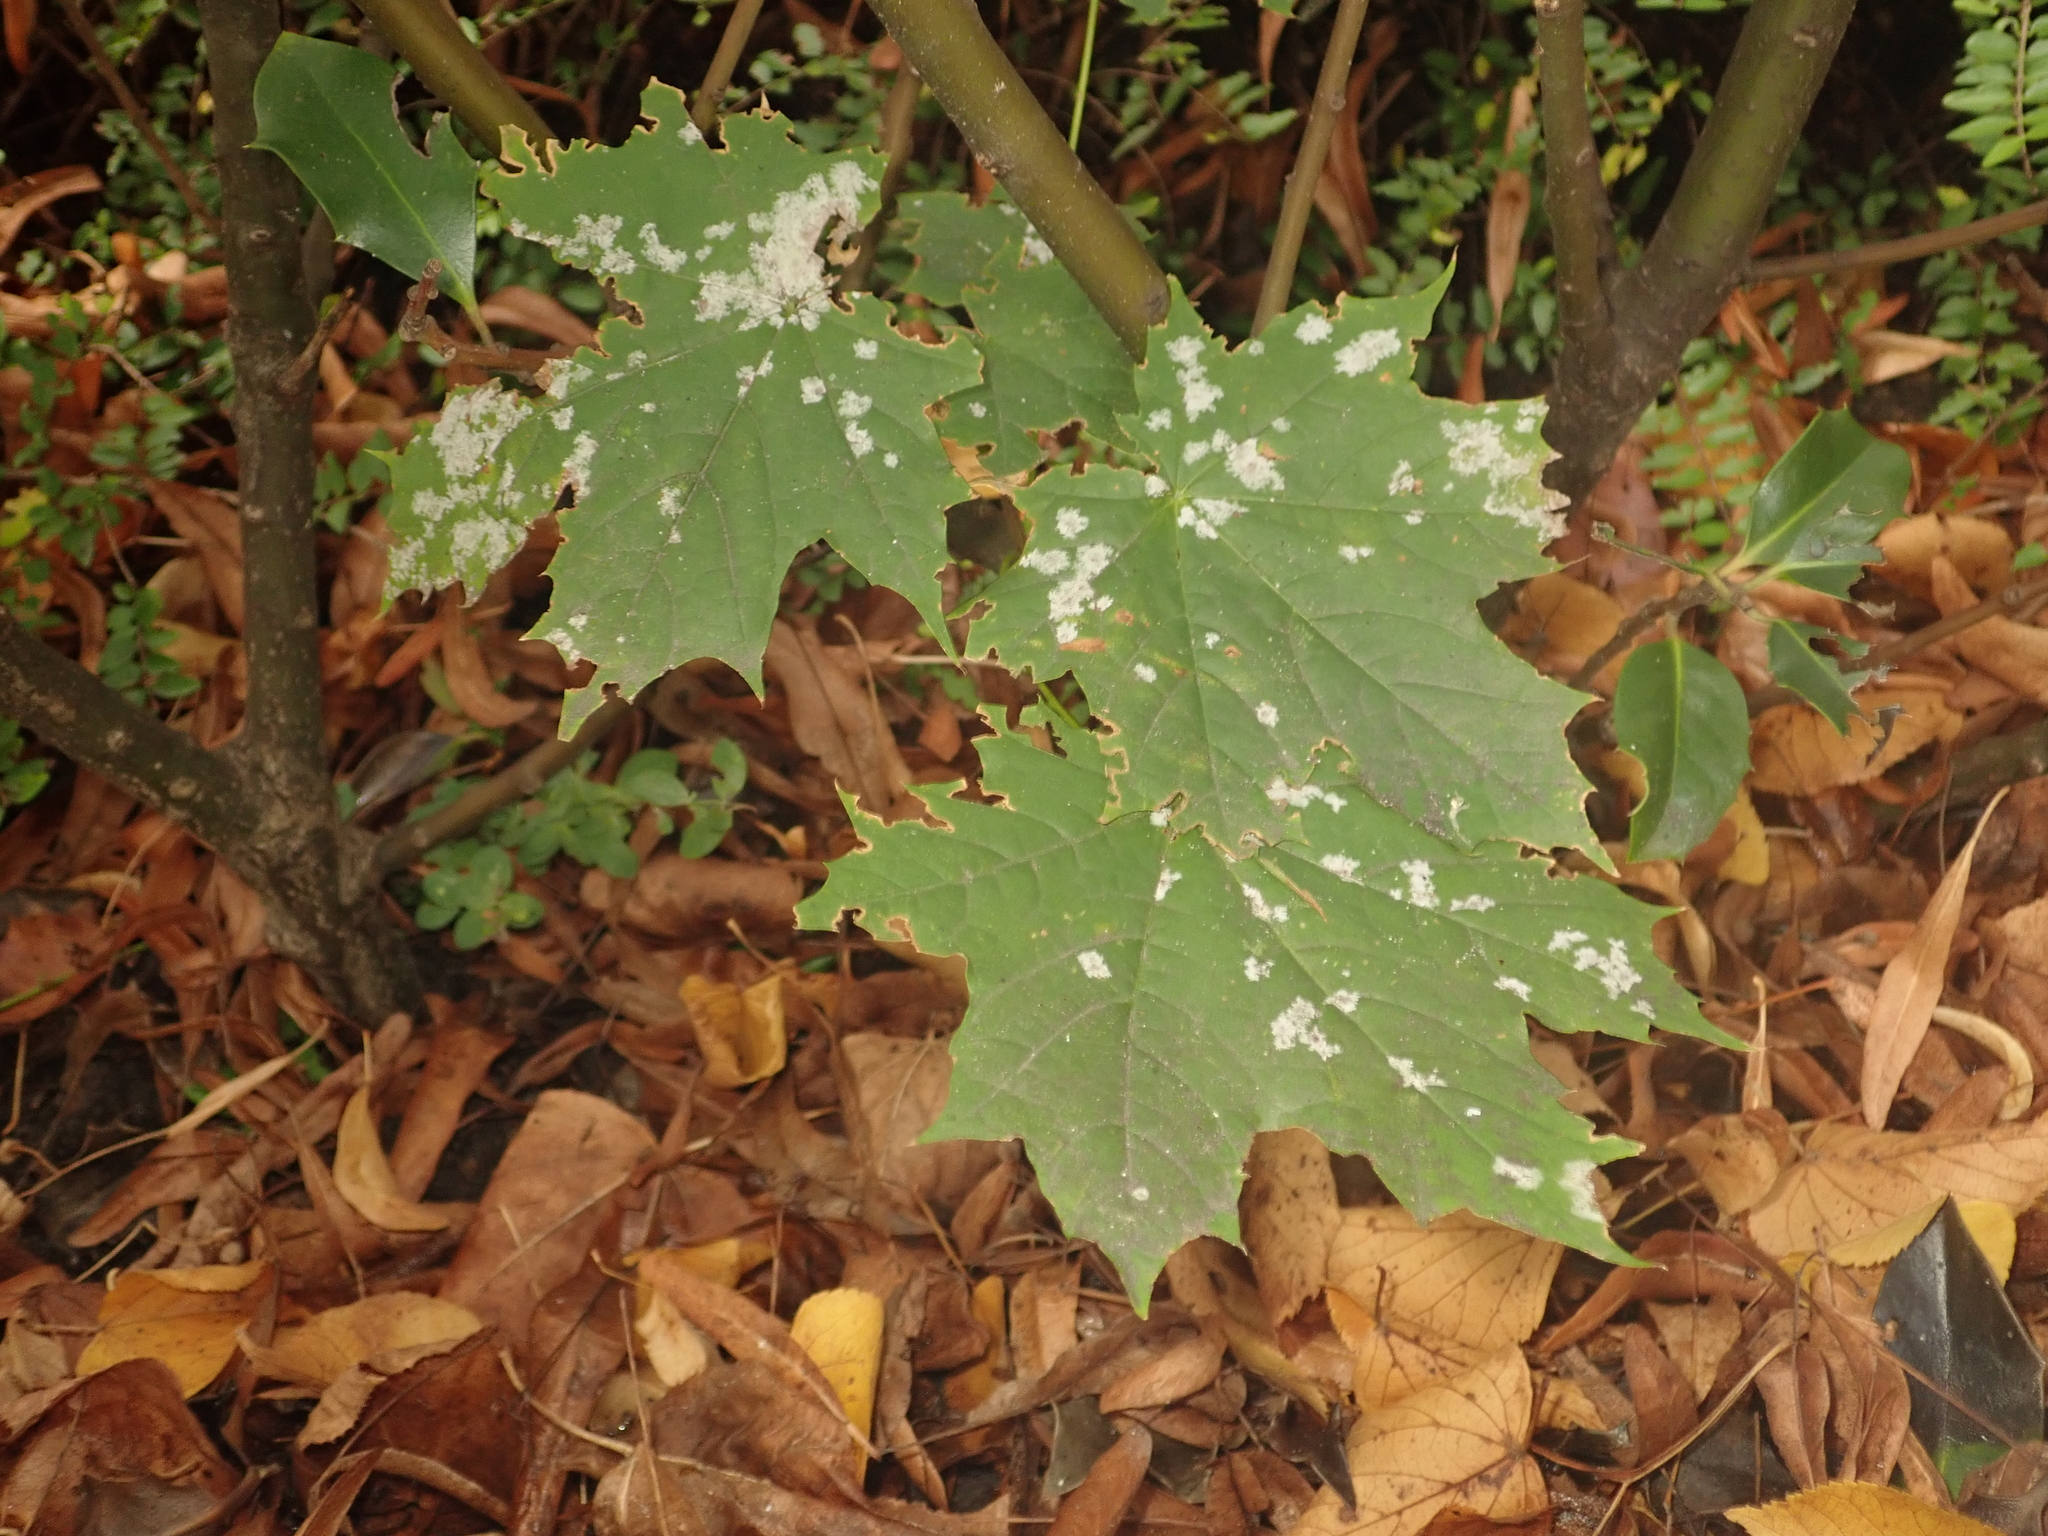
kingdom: Plantae
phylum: Tracheophyta
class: Magnoliopsida
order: Sapindales
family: Sapindaceae
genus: Acer
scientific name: Acer platanoides
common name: Norway maple
